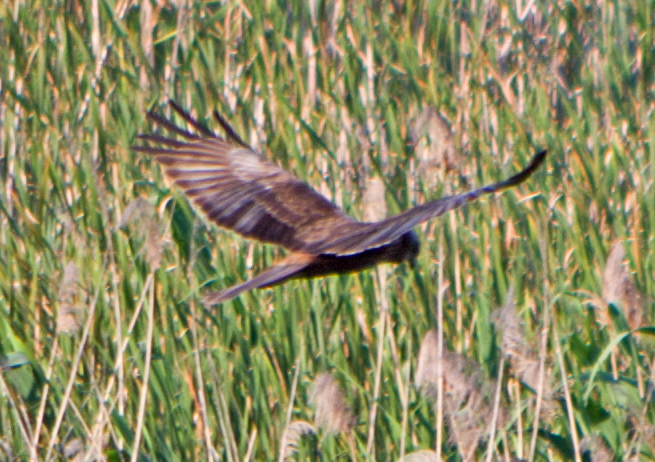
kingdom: Animalia
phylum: Chordata
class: Aves
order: Accipitriformes
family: Accipitridae
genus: Circus
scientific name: Circus aeruginosus
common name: Western marsh harrier
